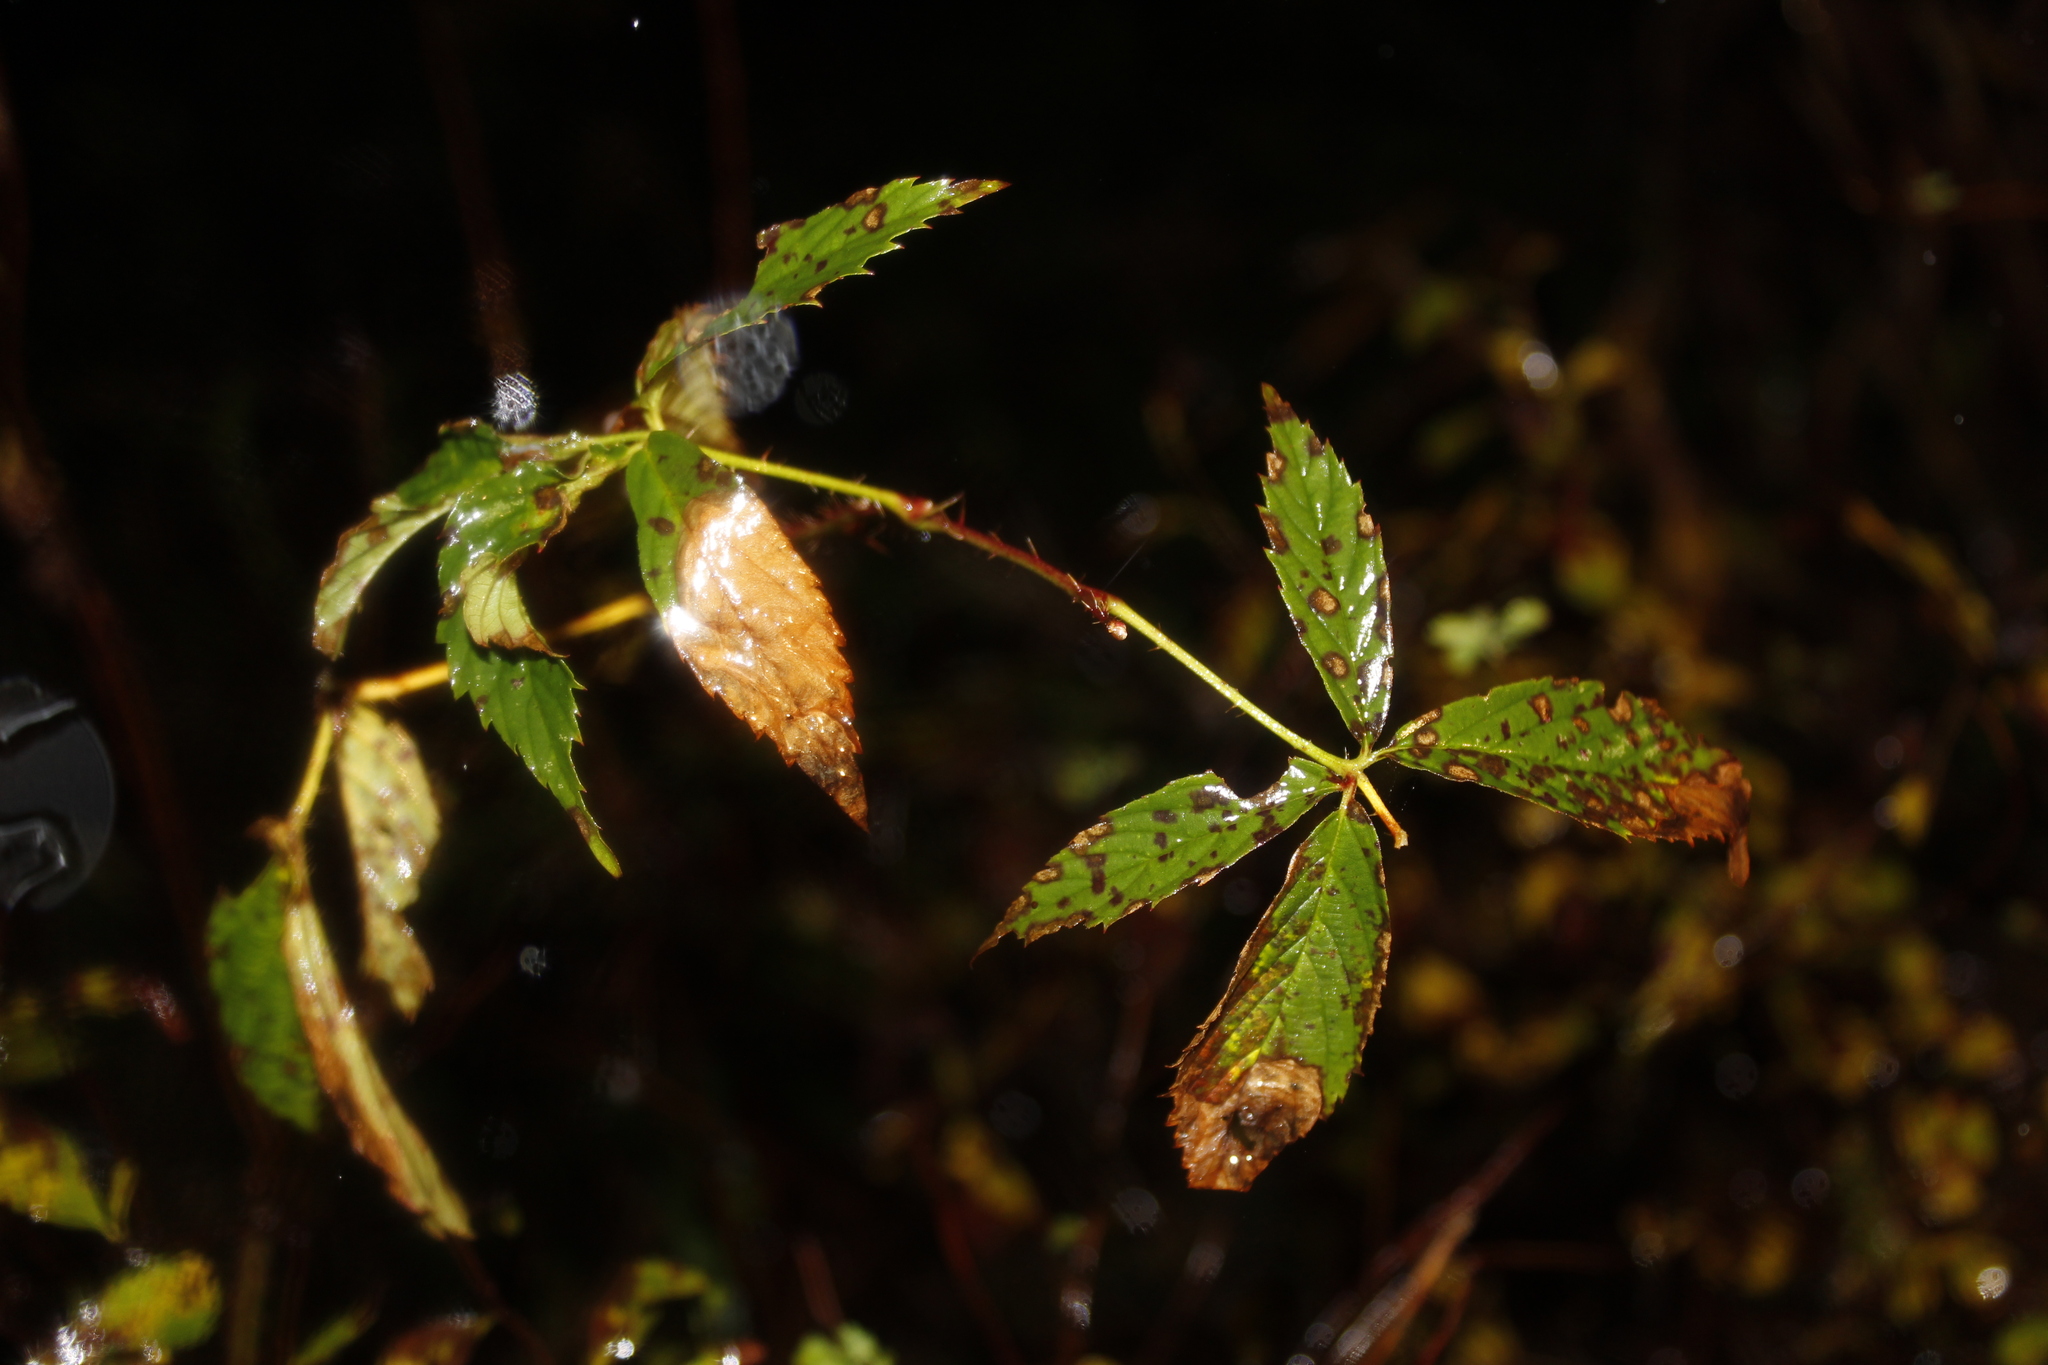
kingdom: Animalia
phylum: Arthropoda
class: Insecta
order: Hymenoptera
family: Tenthredinidae
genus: Metallus
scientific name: Metallus rohweri
